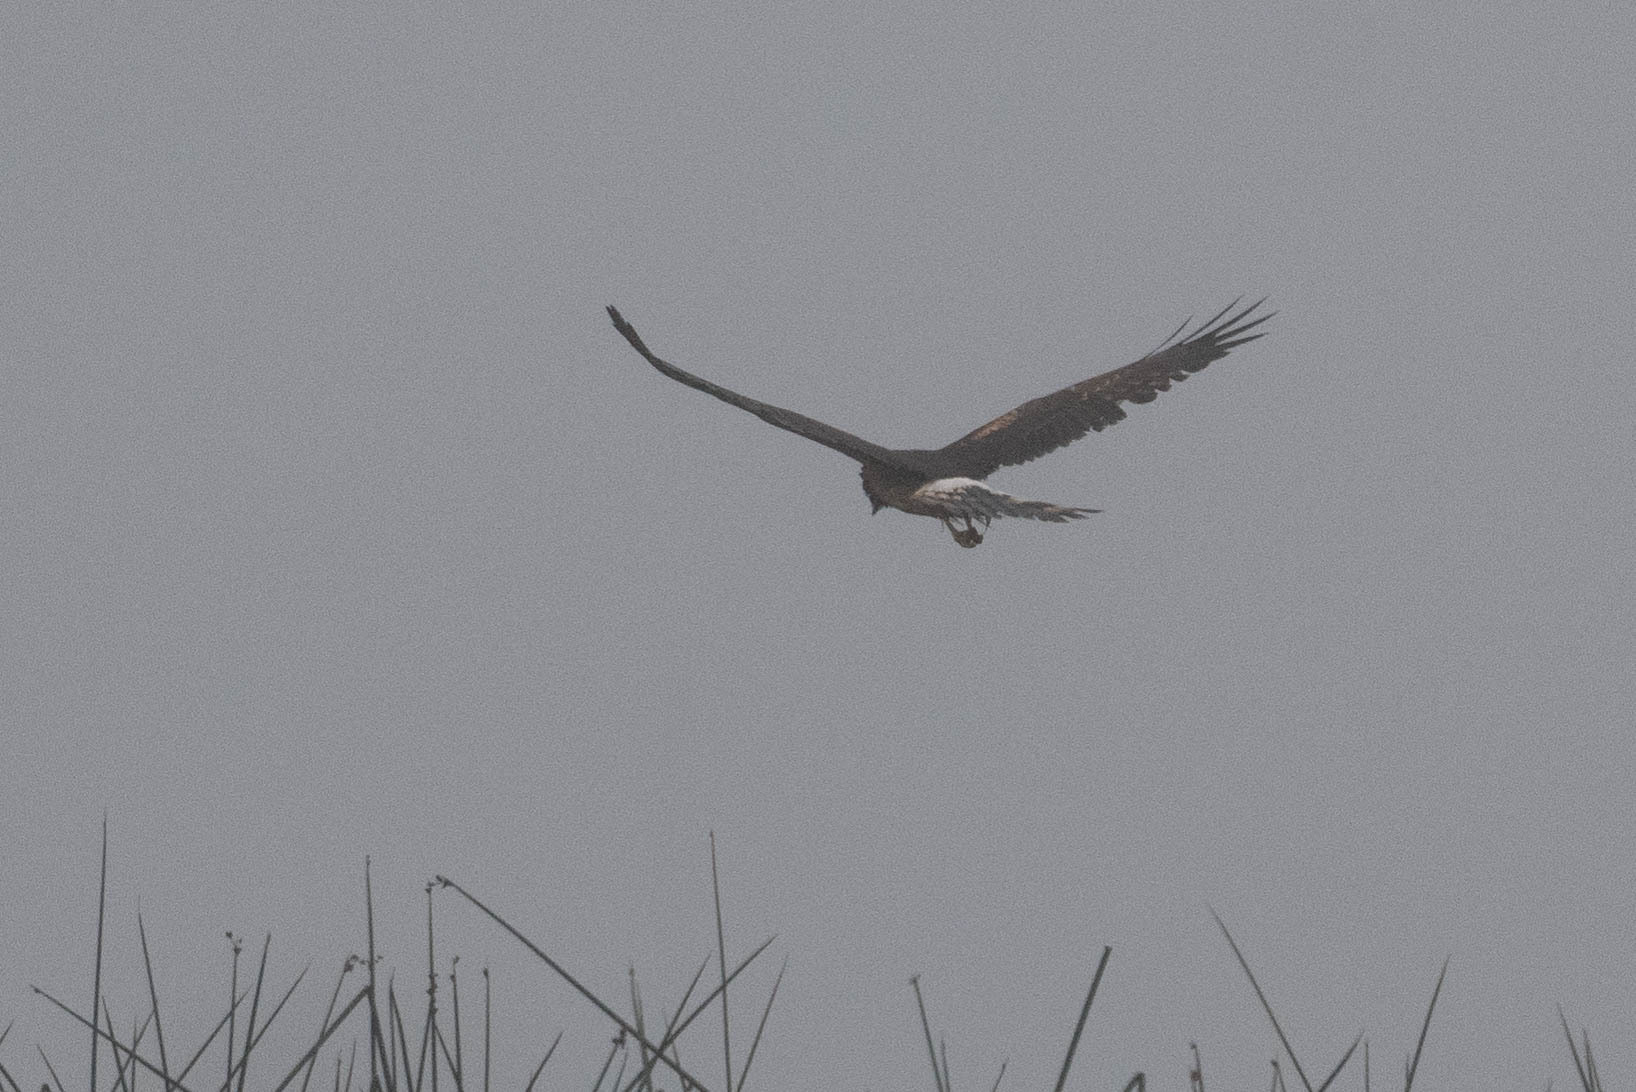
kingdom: Animalia
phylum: Chordata
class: Aves
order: Accipitriformes
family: Accipitridae
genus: Circus
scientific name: Circus cyaneus
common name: Hen harrier
